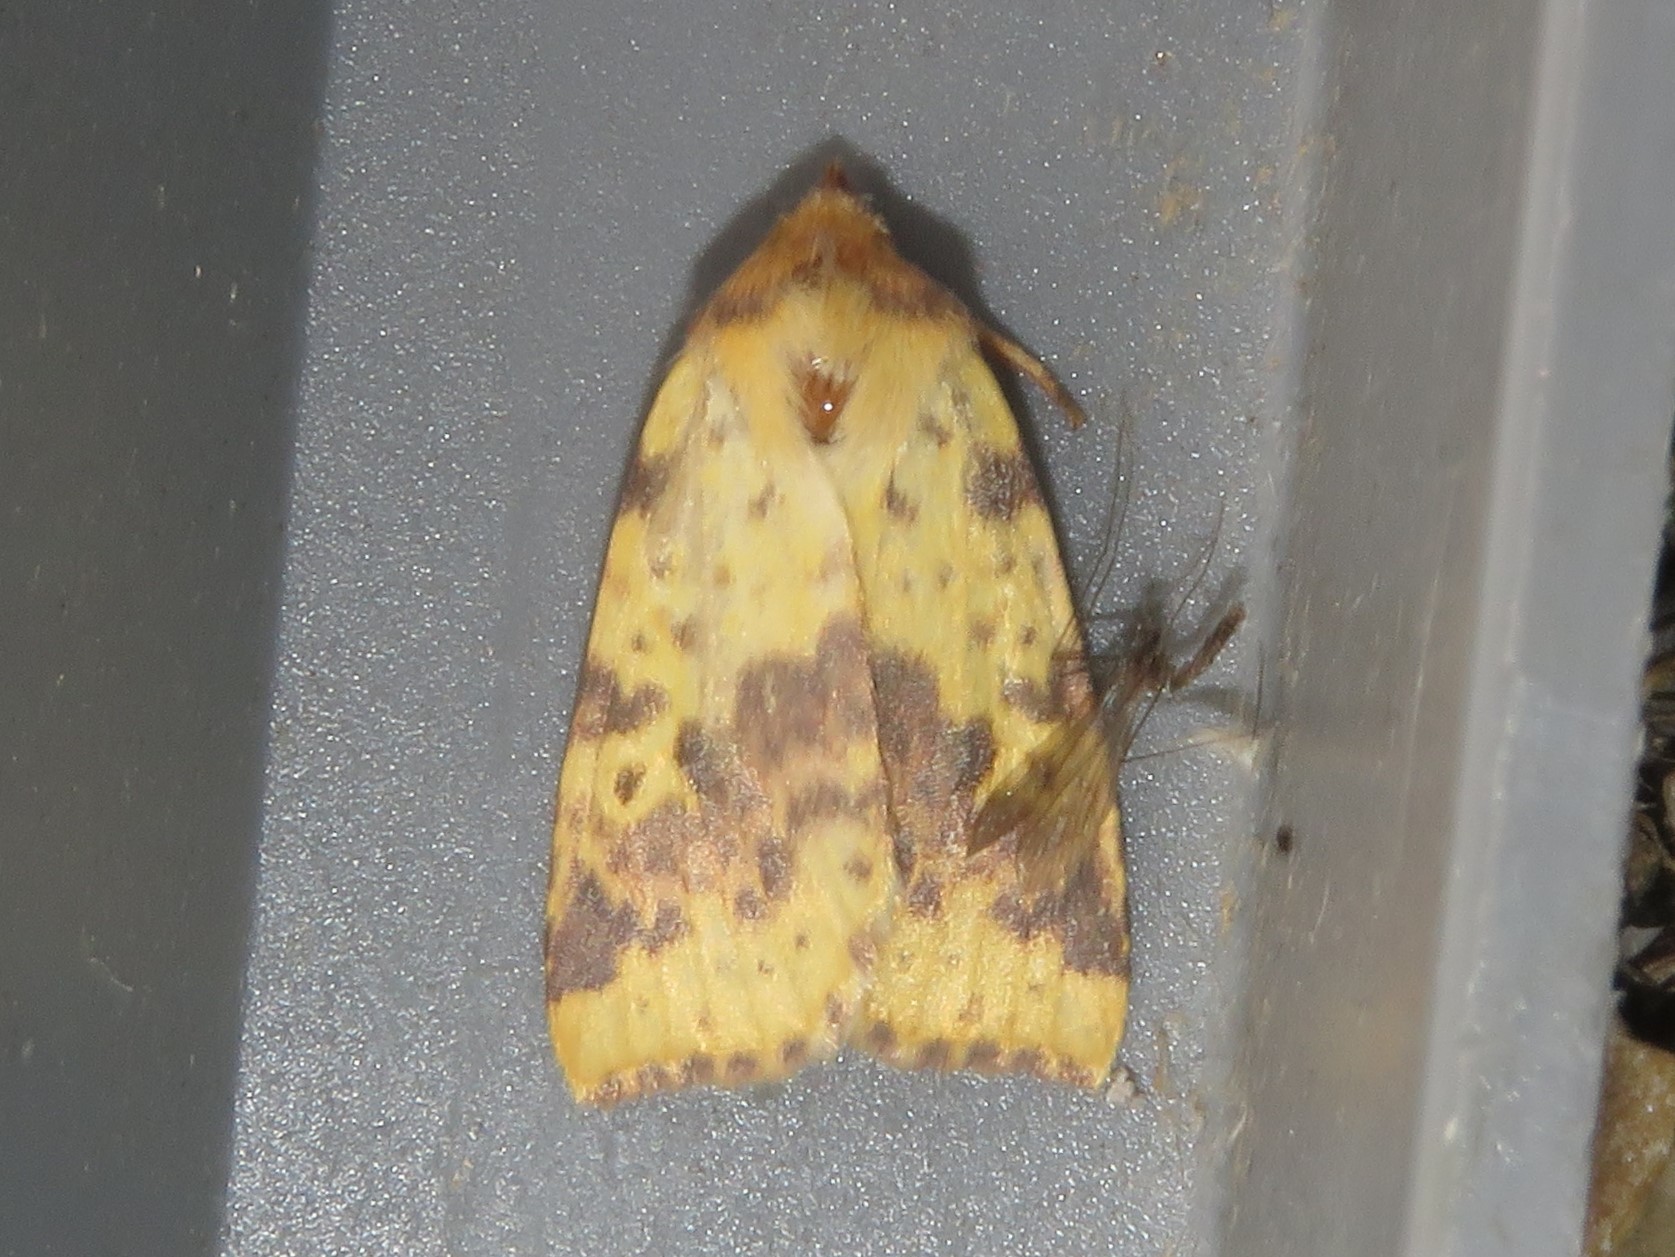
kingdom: Animalia
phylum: Arthropoda
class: Insecta
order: Lepidoptera
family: Noctuidae
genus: Xanthia
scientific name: Xanthia tatago
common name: Pink-banded sallow
